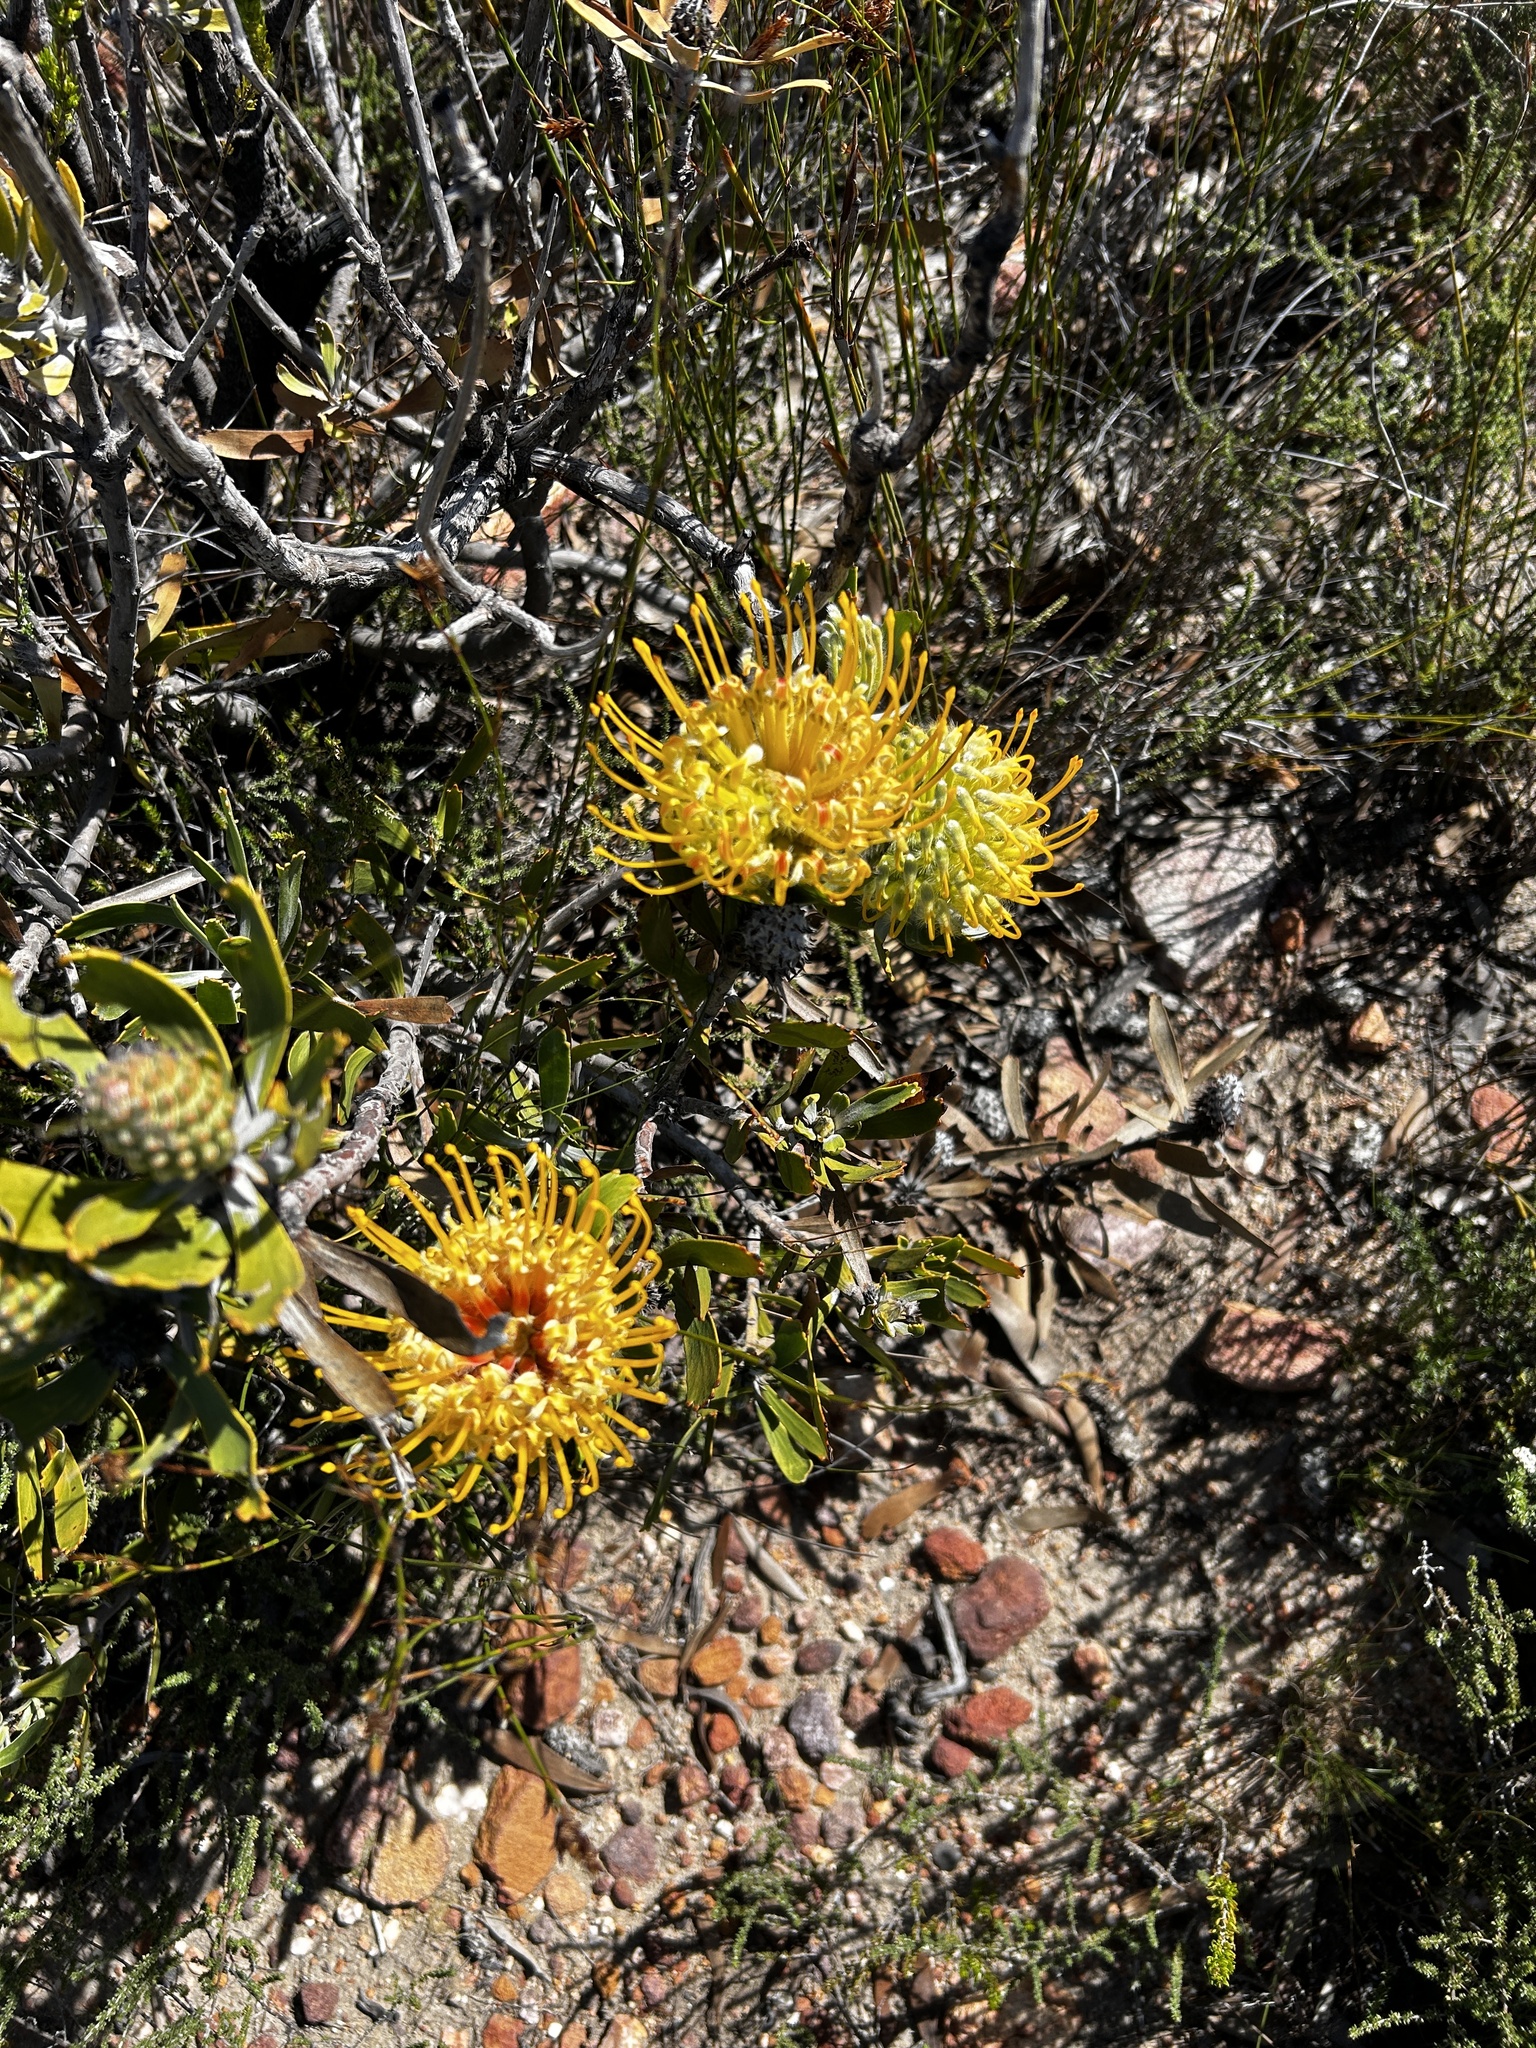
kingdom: Plantae
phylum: Tracheophyta
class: Magnoliopsida
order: Proteales
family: Proteaceae
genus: Leucospermum
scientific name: Leucospermum cuneiforme
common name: Common pincushion
